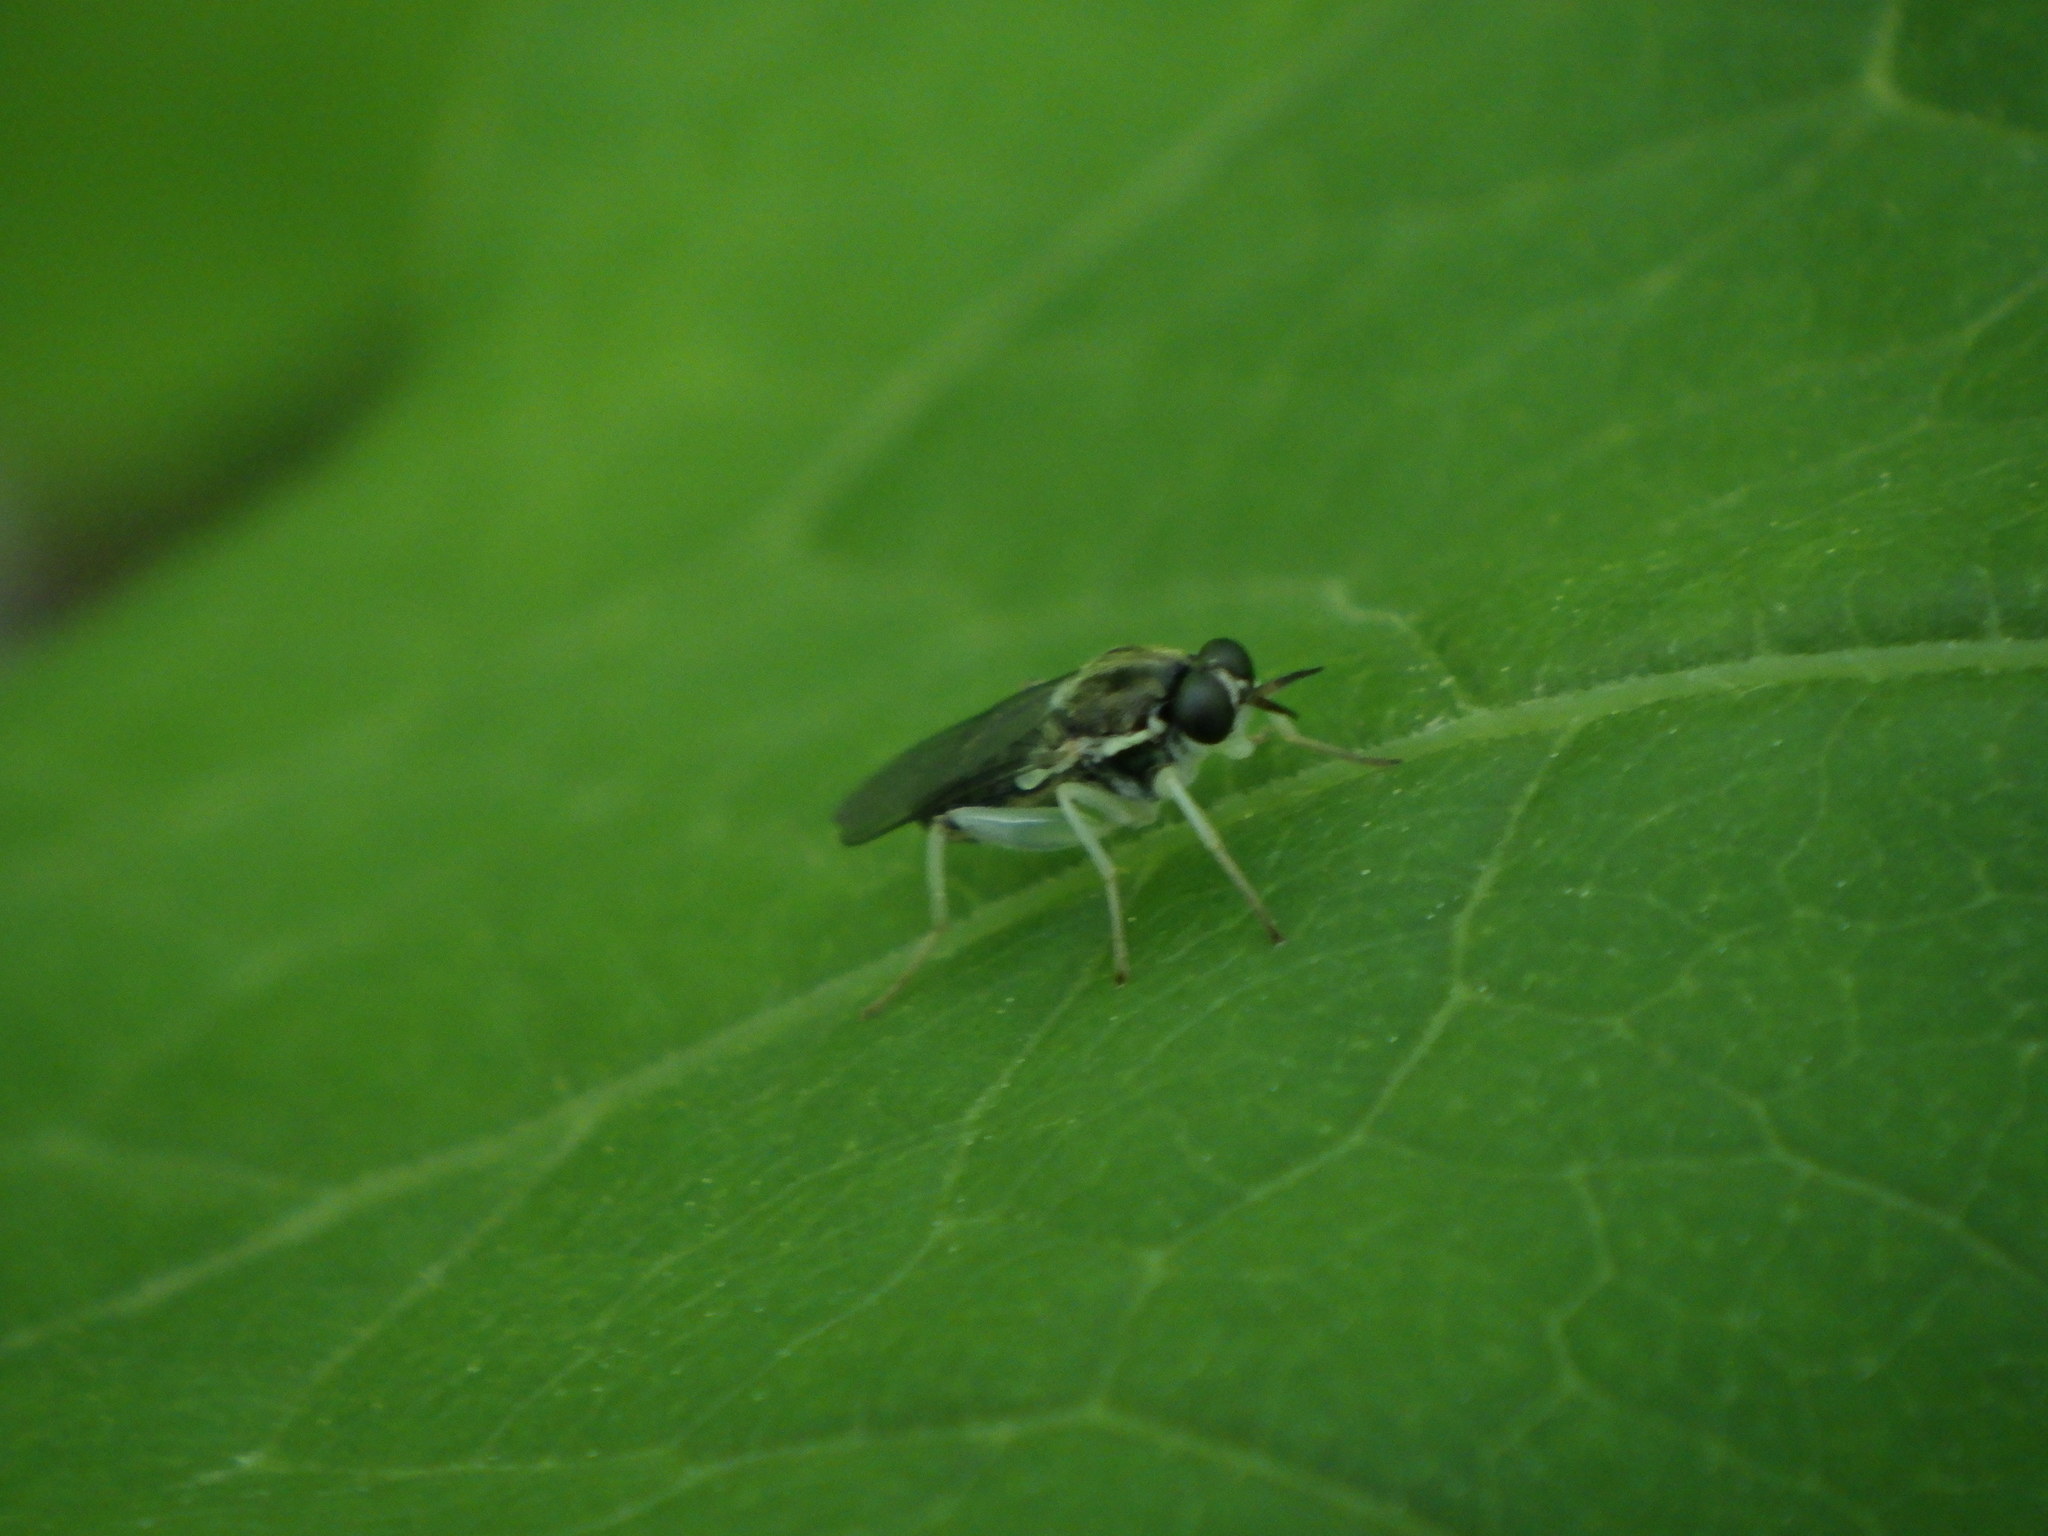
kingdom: Animalia
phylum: Arthropoda
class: Insecta
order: Diptera
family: Xylomyidae
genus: Solva
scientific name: Solva pallipes
